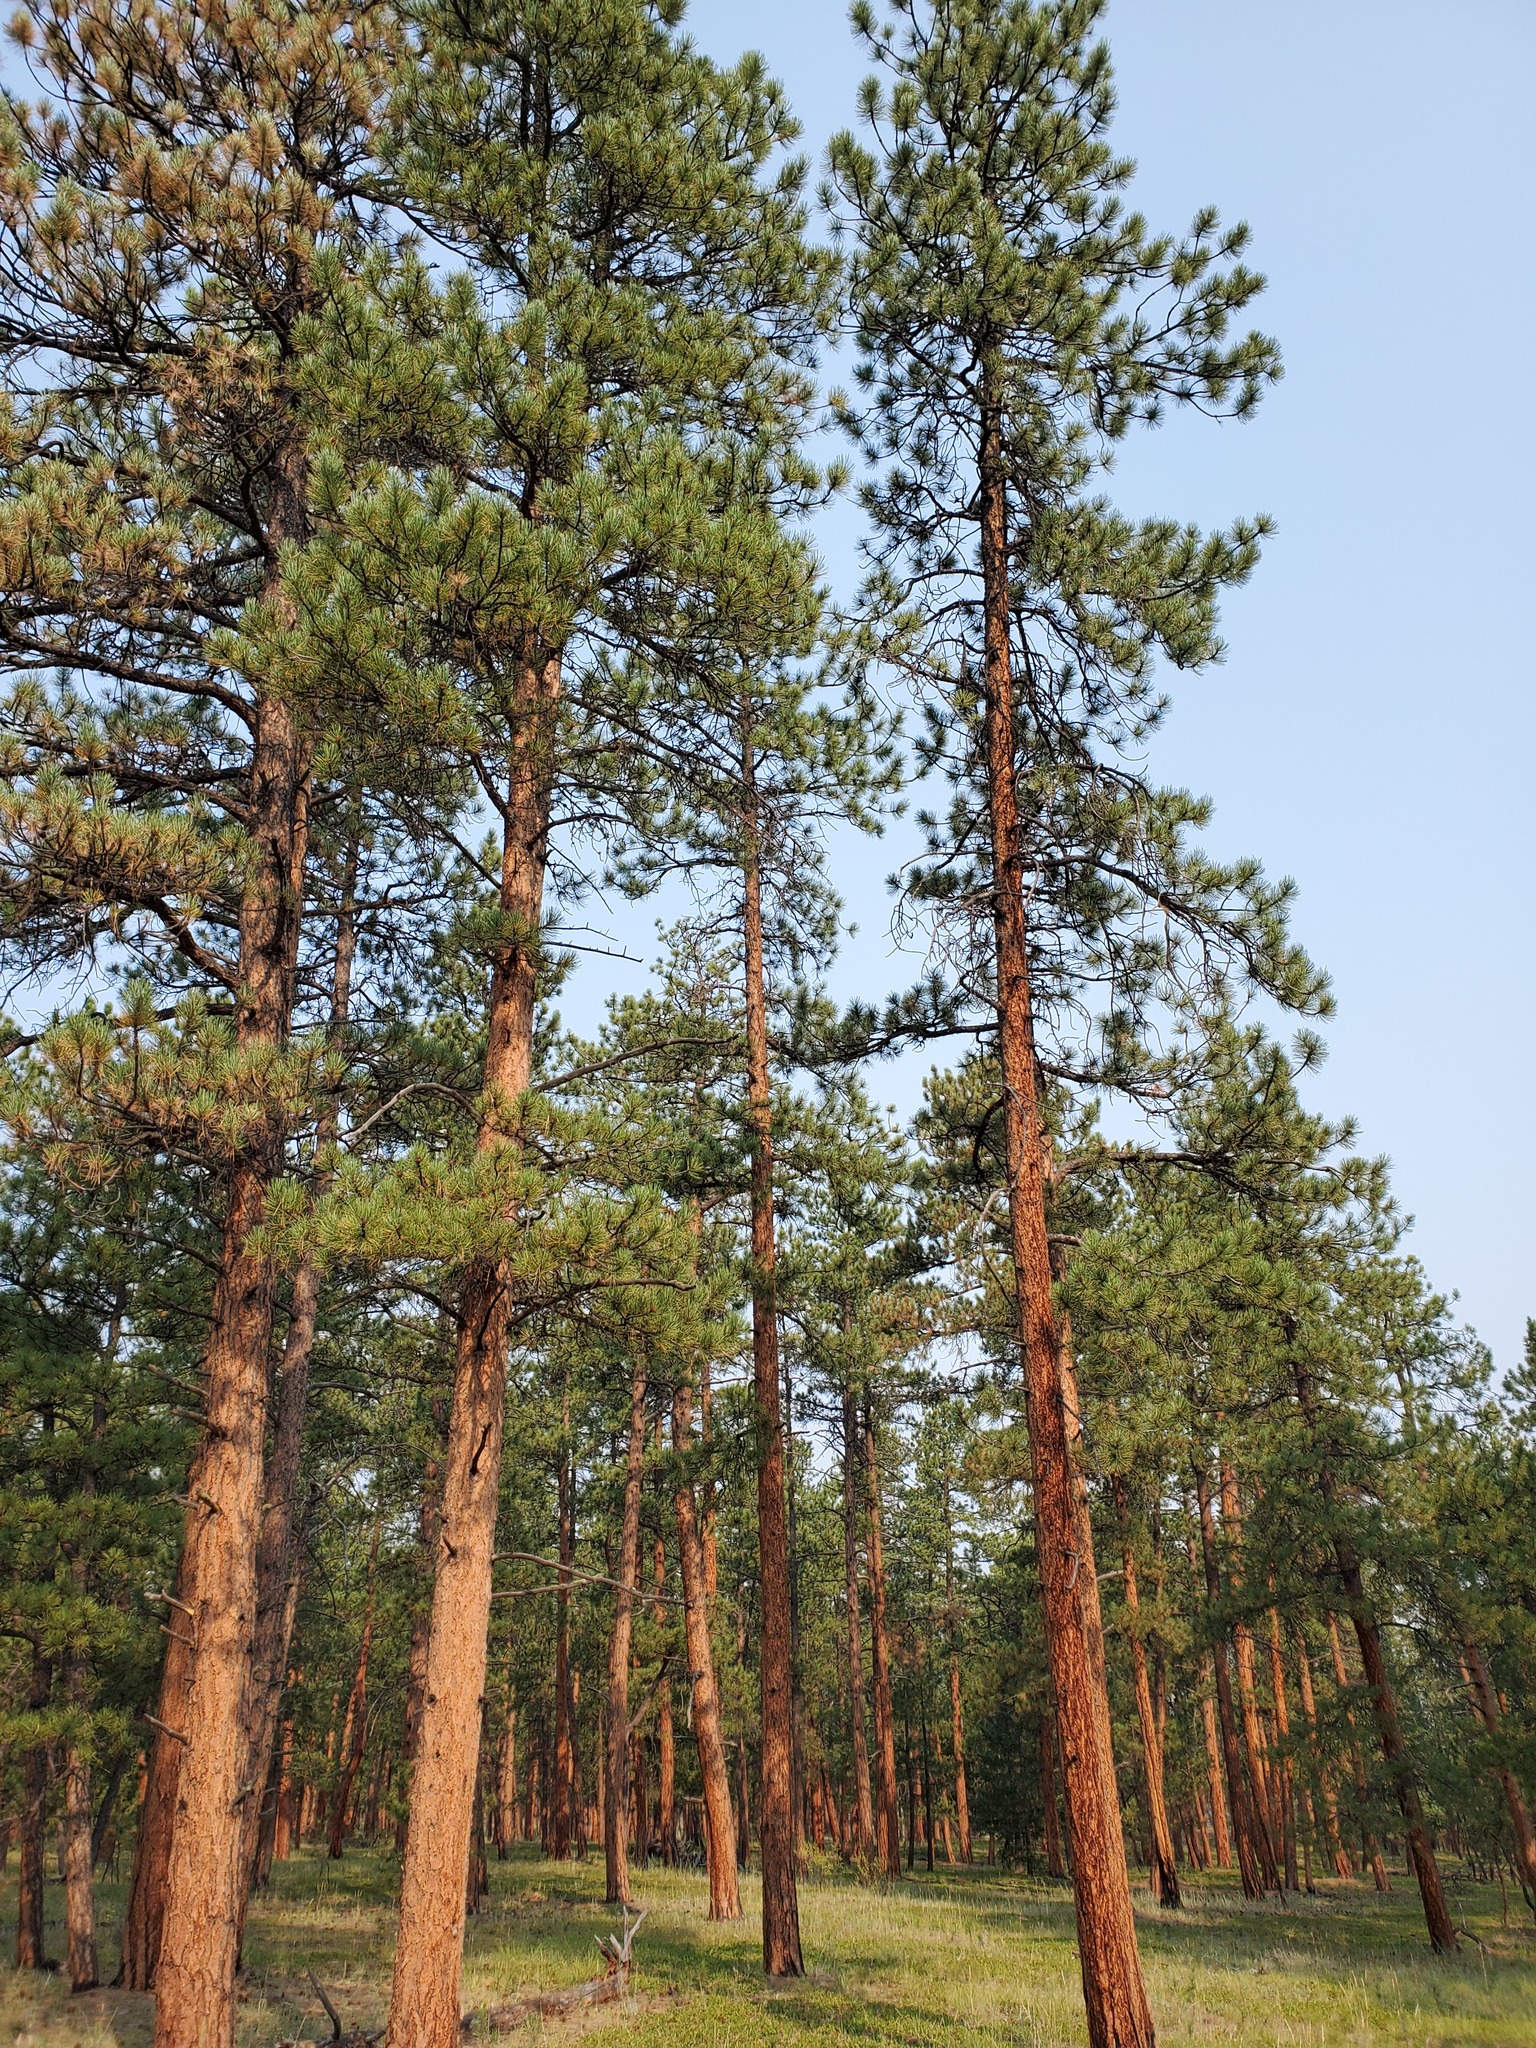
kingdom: Plantae
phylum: Tracheophyta
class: Pinopsida
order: Pinales
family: Pinaceae
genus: Pinus
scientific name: Pinus ponderosa
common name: Western yellow-pine
